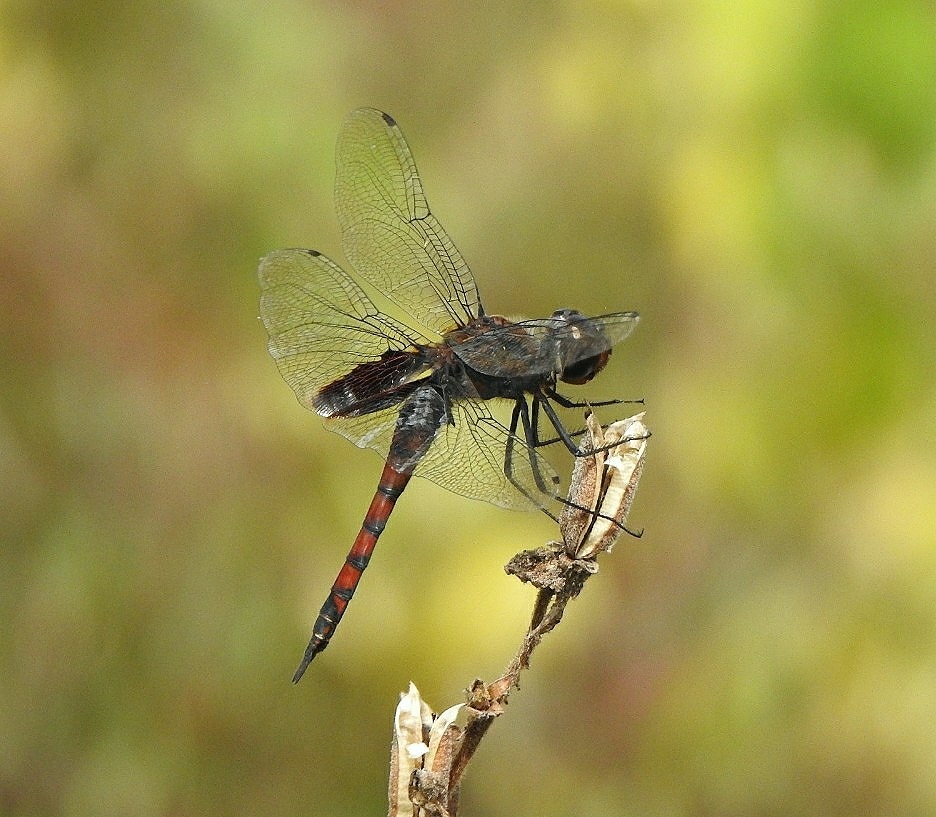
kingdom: Animalia
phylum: Arthropoda
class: Insecta
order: Odonata
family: Libellulidae
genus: Tramea
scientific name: Tramea limbata
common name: Ferruginous glider
